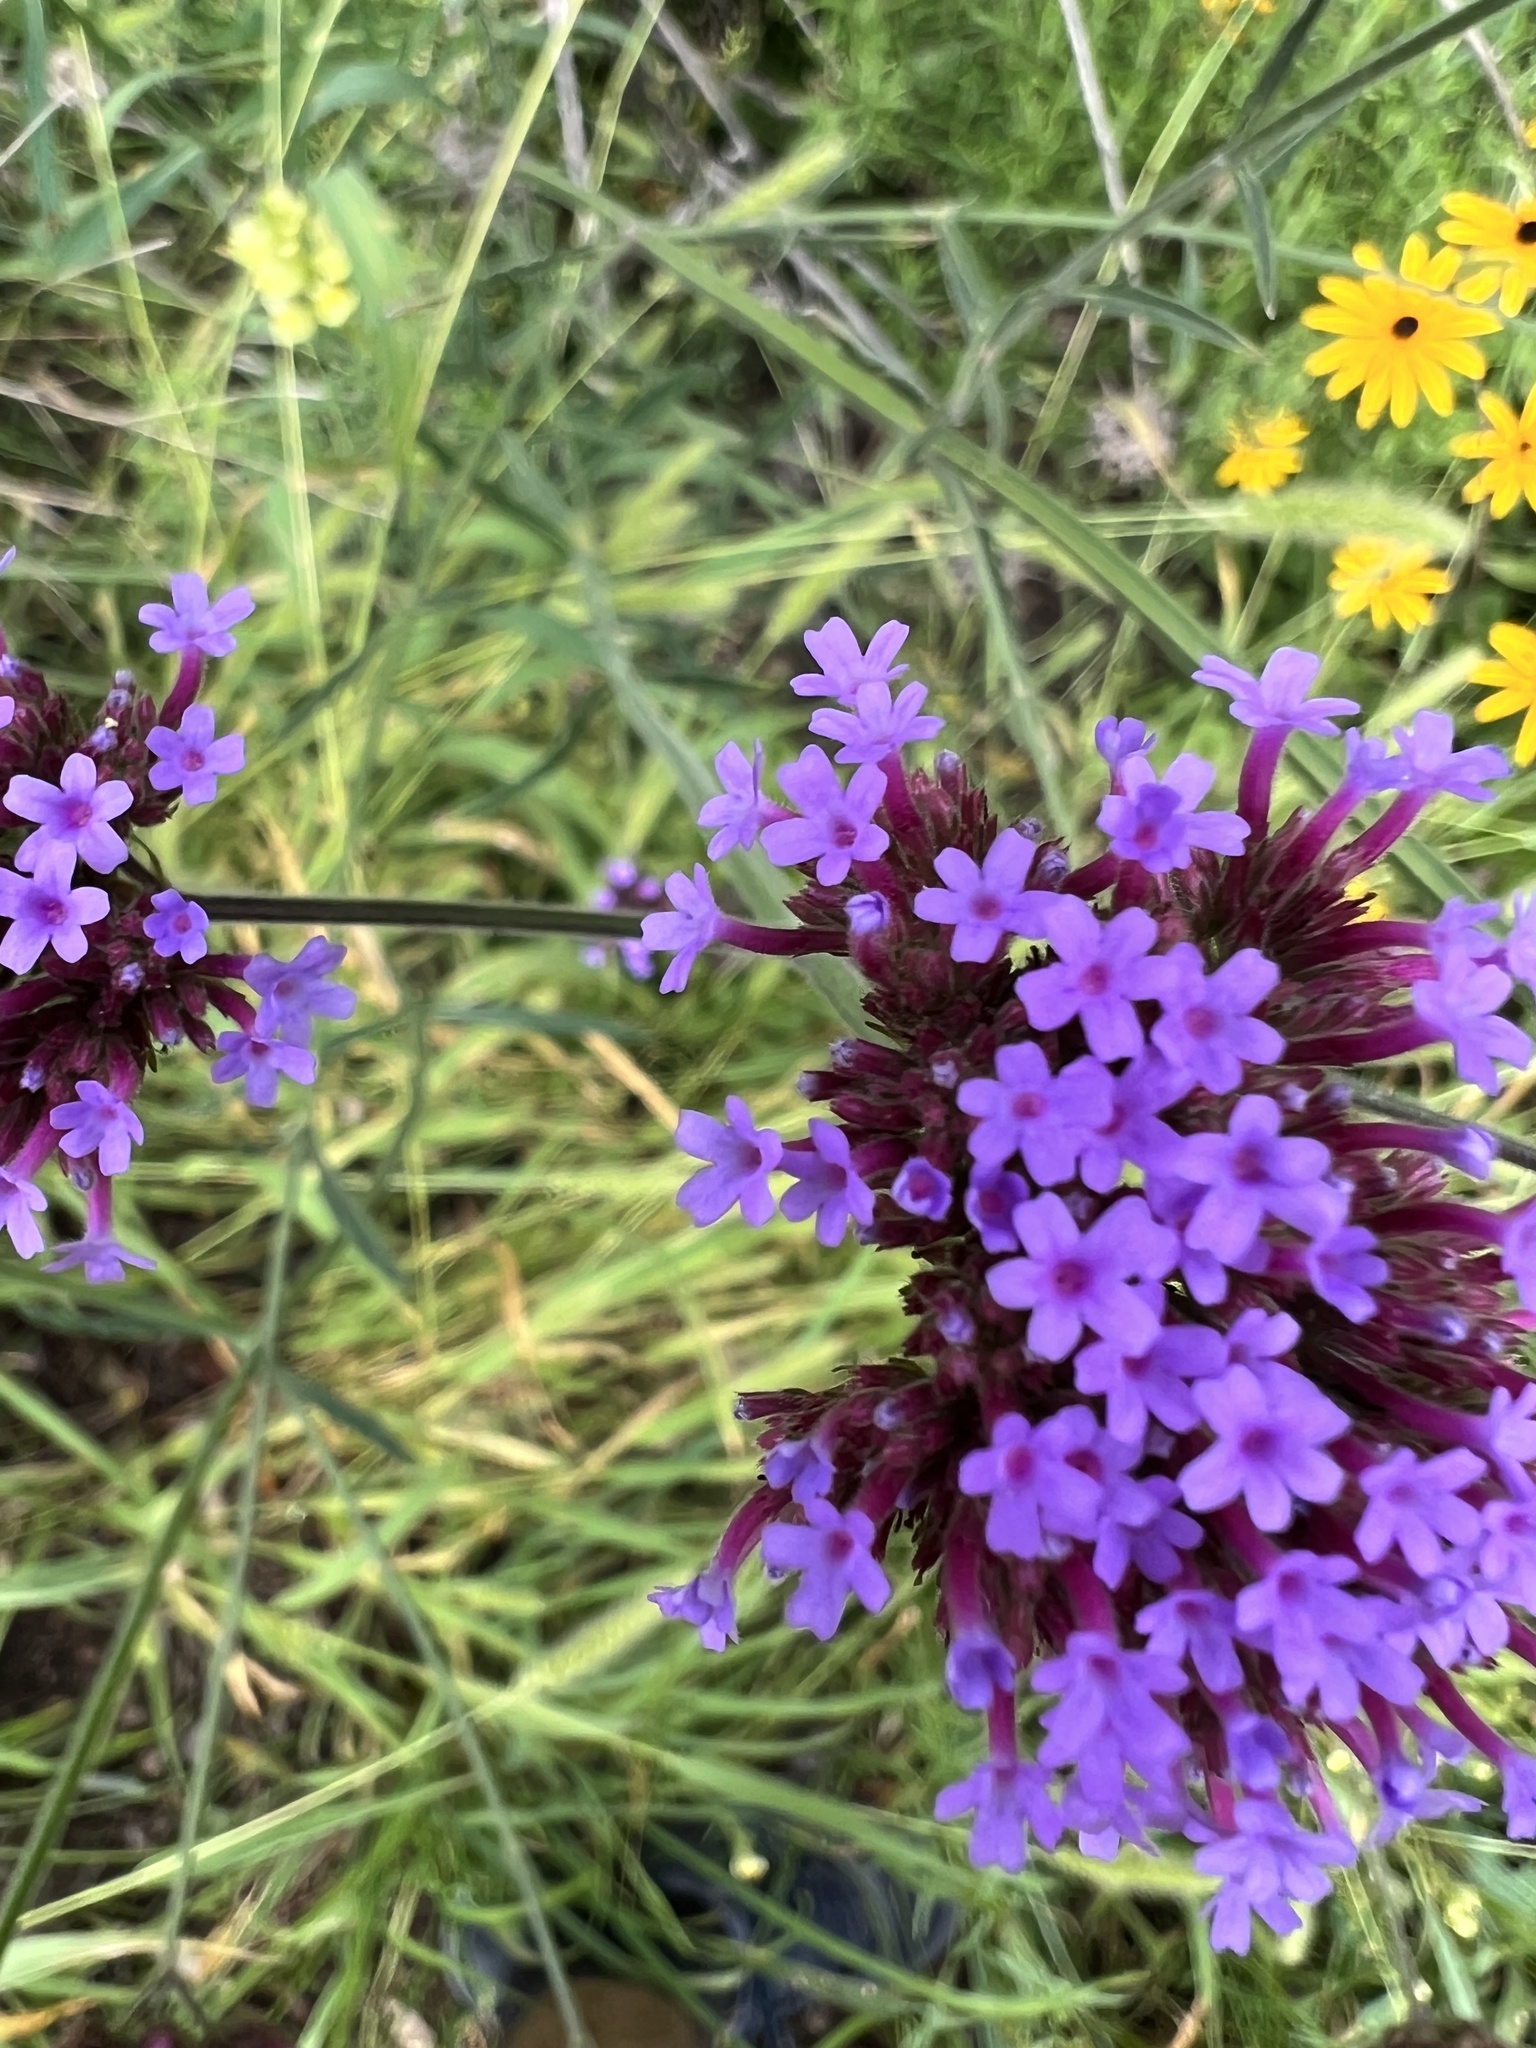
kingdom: Plantae
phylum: Tracheophyta
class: Magnoliopsida
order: Lamiales
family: Verbenaceae
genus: Verbena
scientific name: Verbena bonariensis
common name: Purpletop vervain
